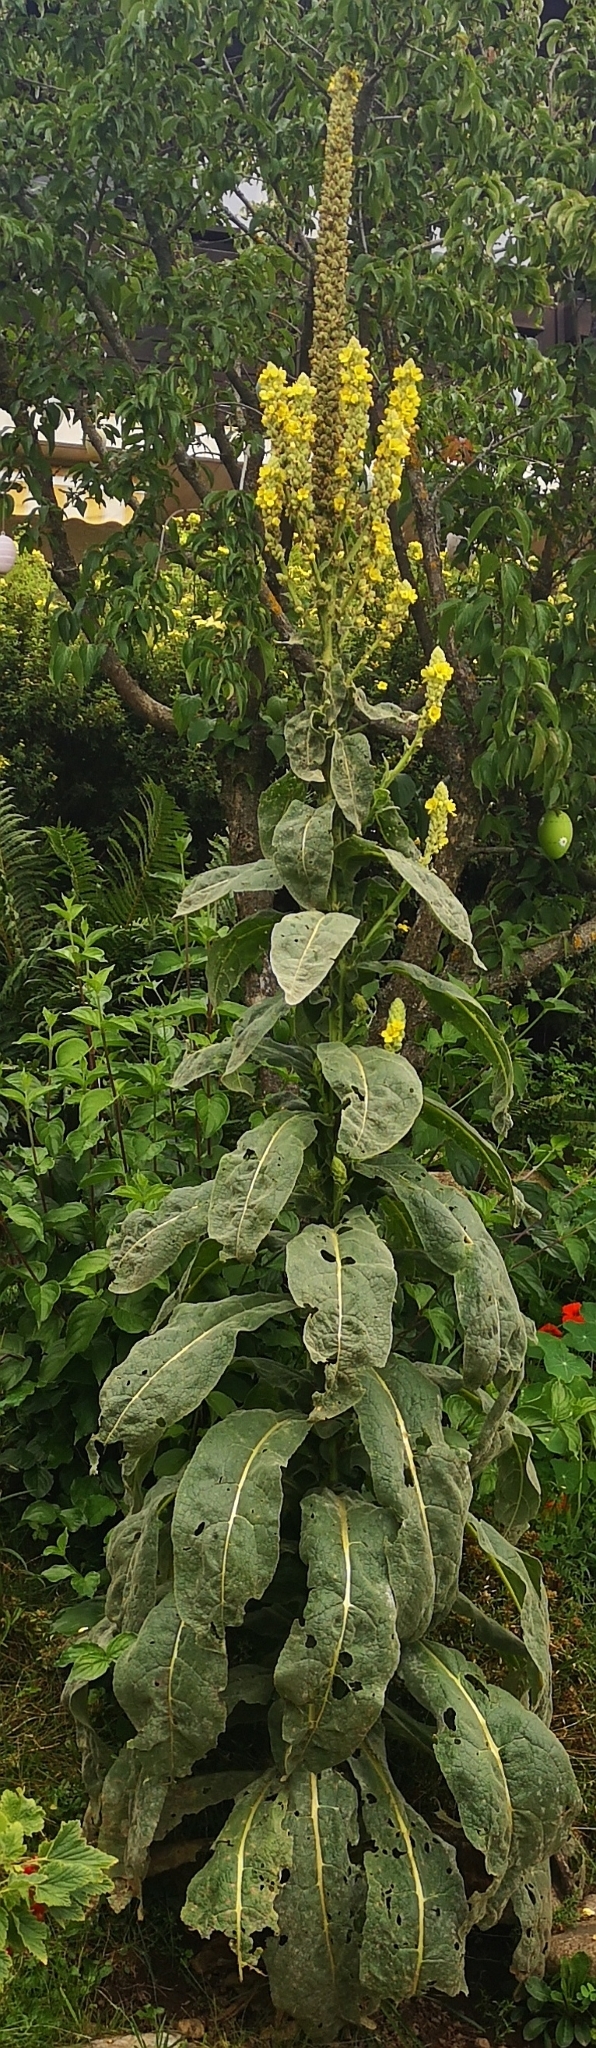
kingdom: Plantae
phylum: Tracheophyta
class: Magnoliopsida
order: Lamiales
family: Scrophulariaceae
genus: Verbascum
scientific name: Verbascum thapsus
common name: Common mullein
